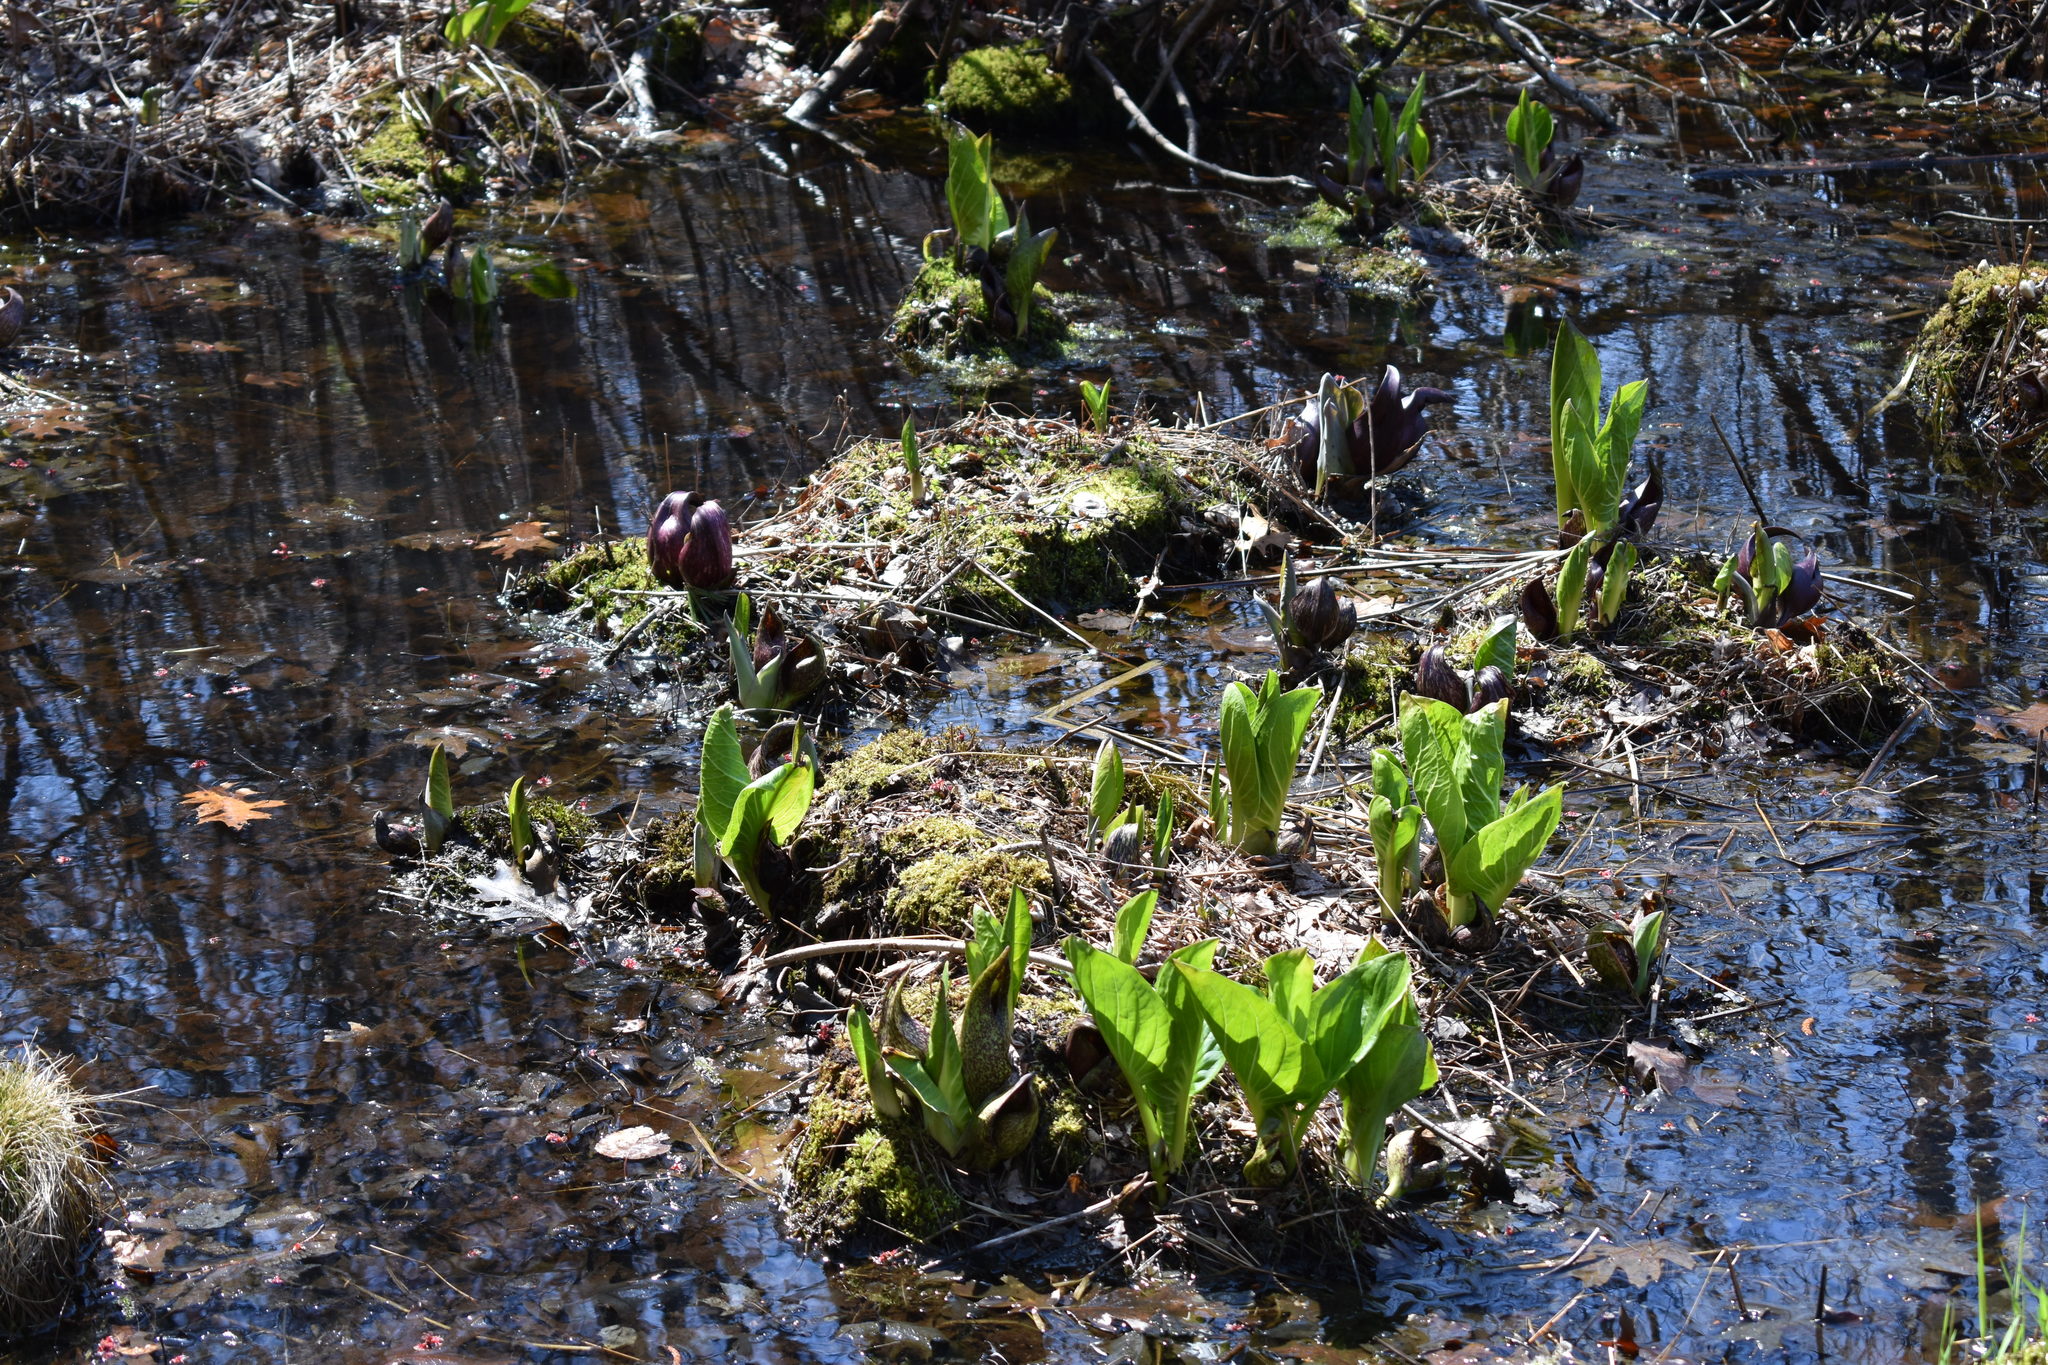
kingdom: Plantae
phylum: Tracheophyta
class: Liliopsida
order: Alismatales
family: Araceae
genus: Symplocarpus
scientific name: Symplocarpus foetidus
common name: Eastern skunk cabbage
